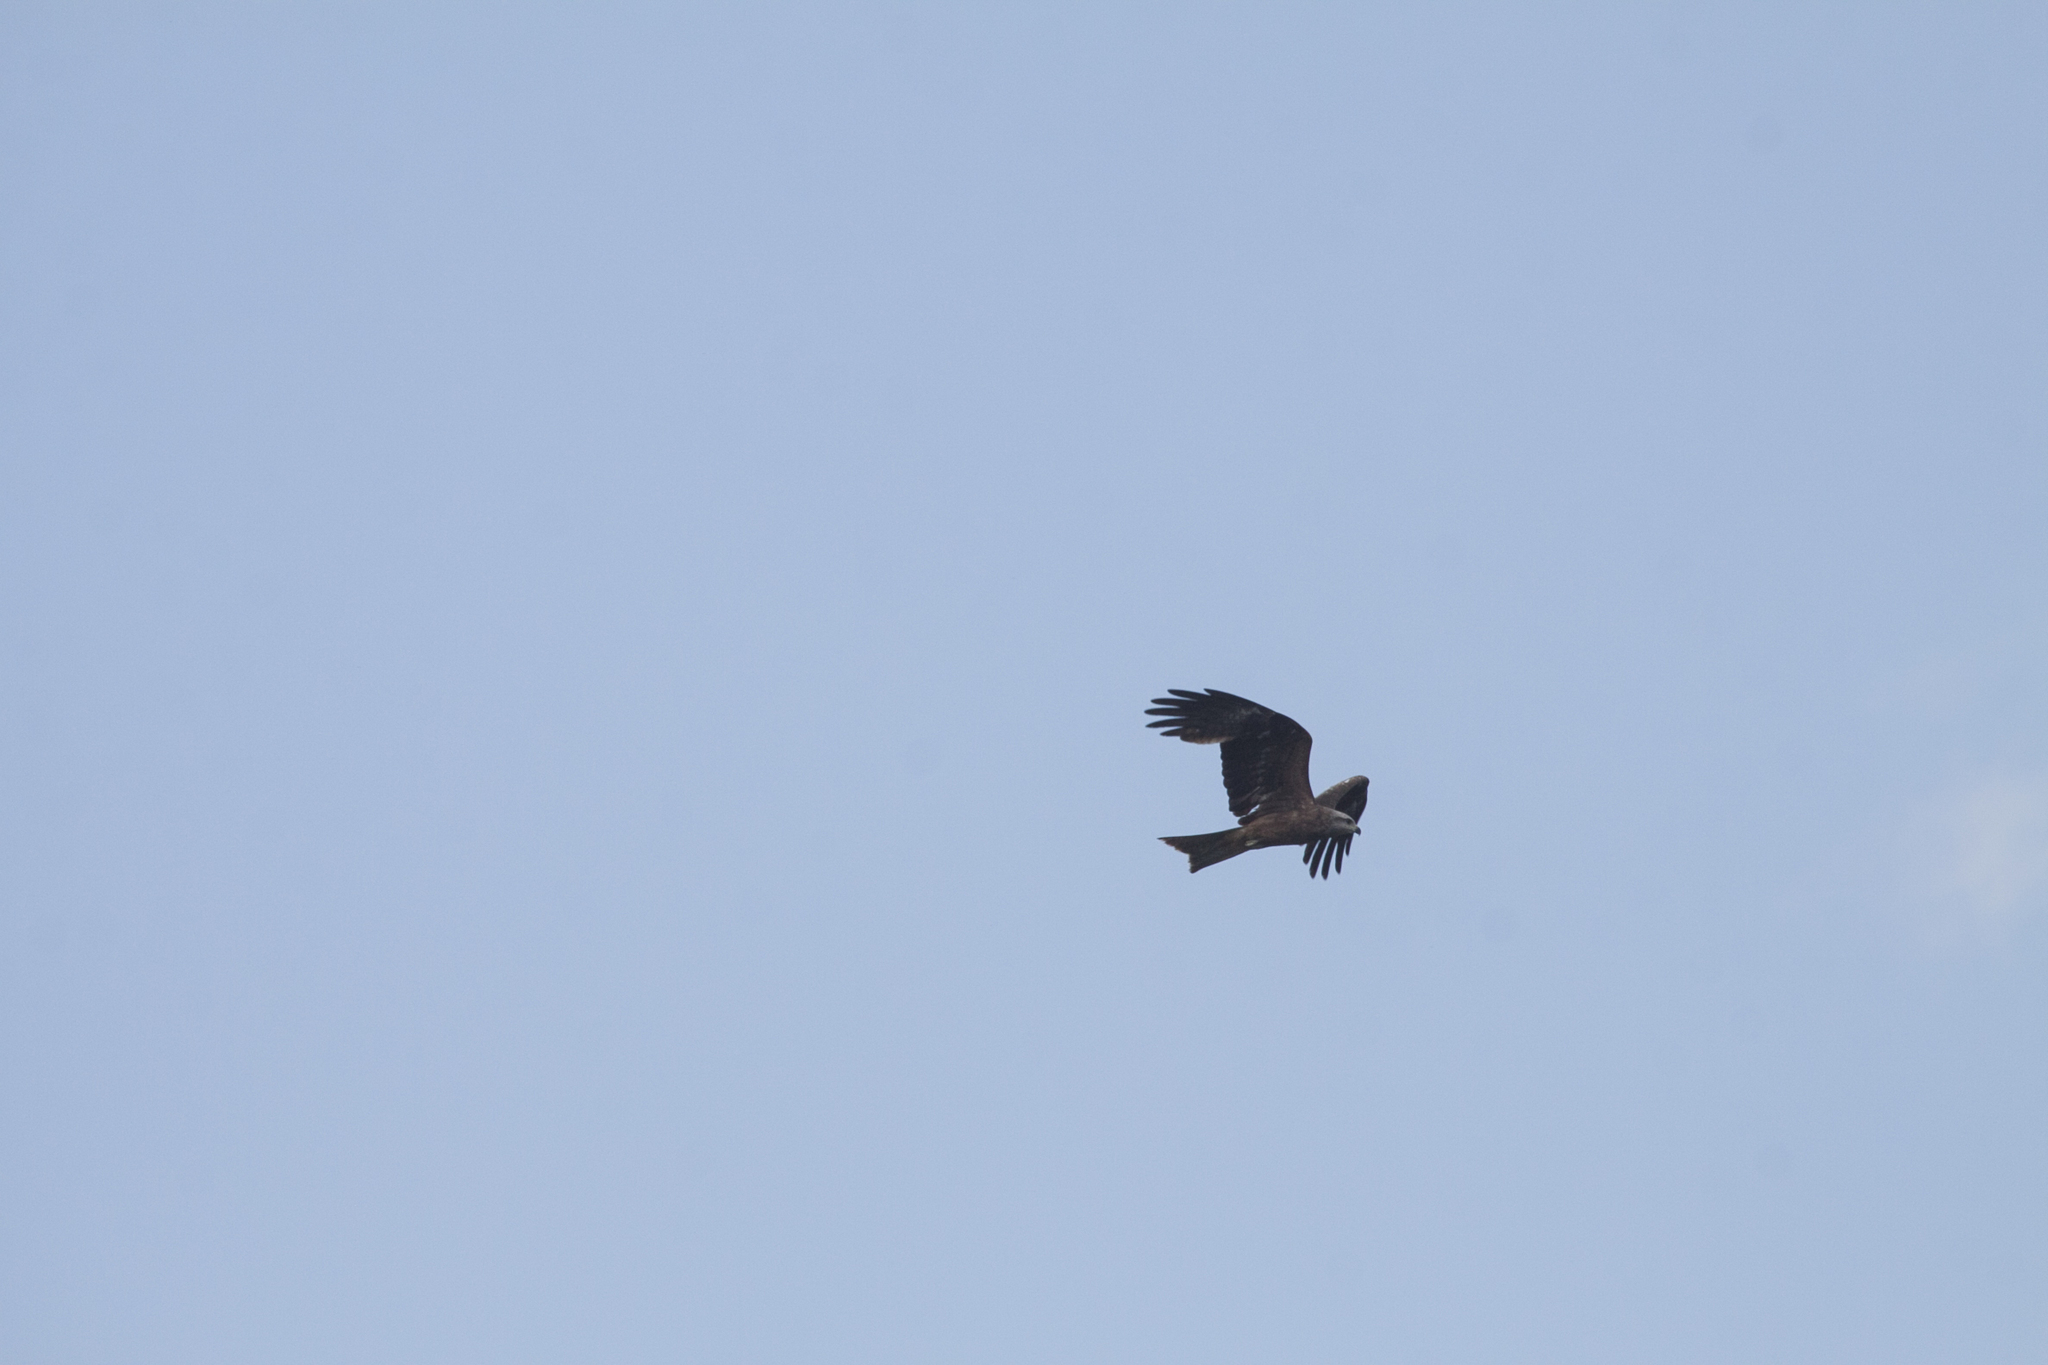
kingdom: Animalia
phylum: Chordata
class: Aves
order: Accipitriformes
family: Accipitridae
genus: Milvus
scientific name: Milvus migrans
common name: Black kite
